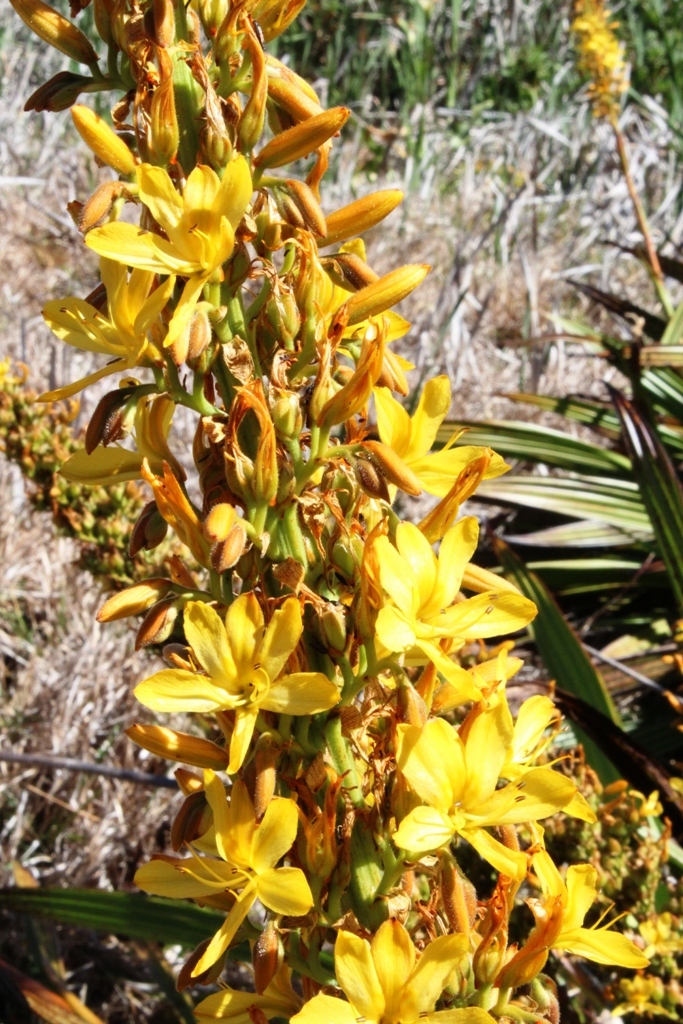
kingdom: Plantae
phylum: Tracheophyta
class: Liliopsida
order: Commelinales
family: Haemodoraceae
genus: Wachendorfia
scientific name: Wachendorfia thyrsiflora
